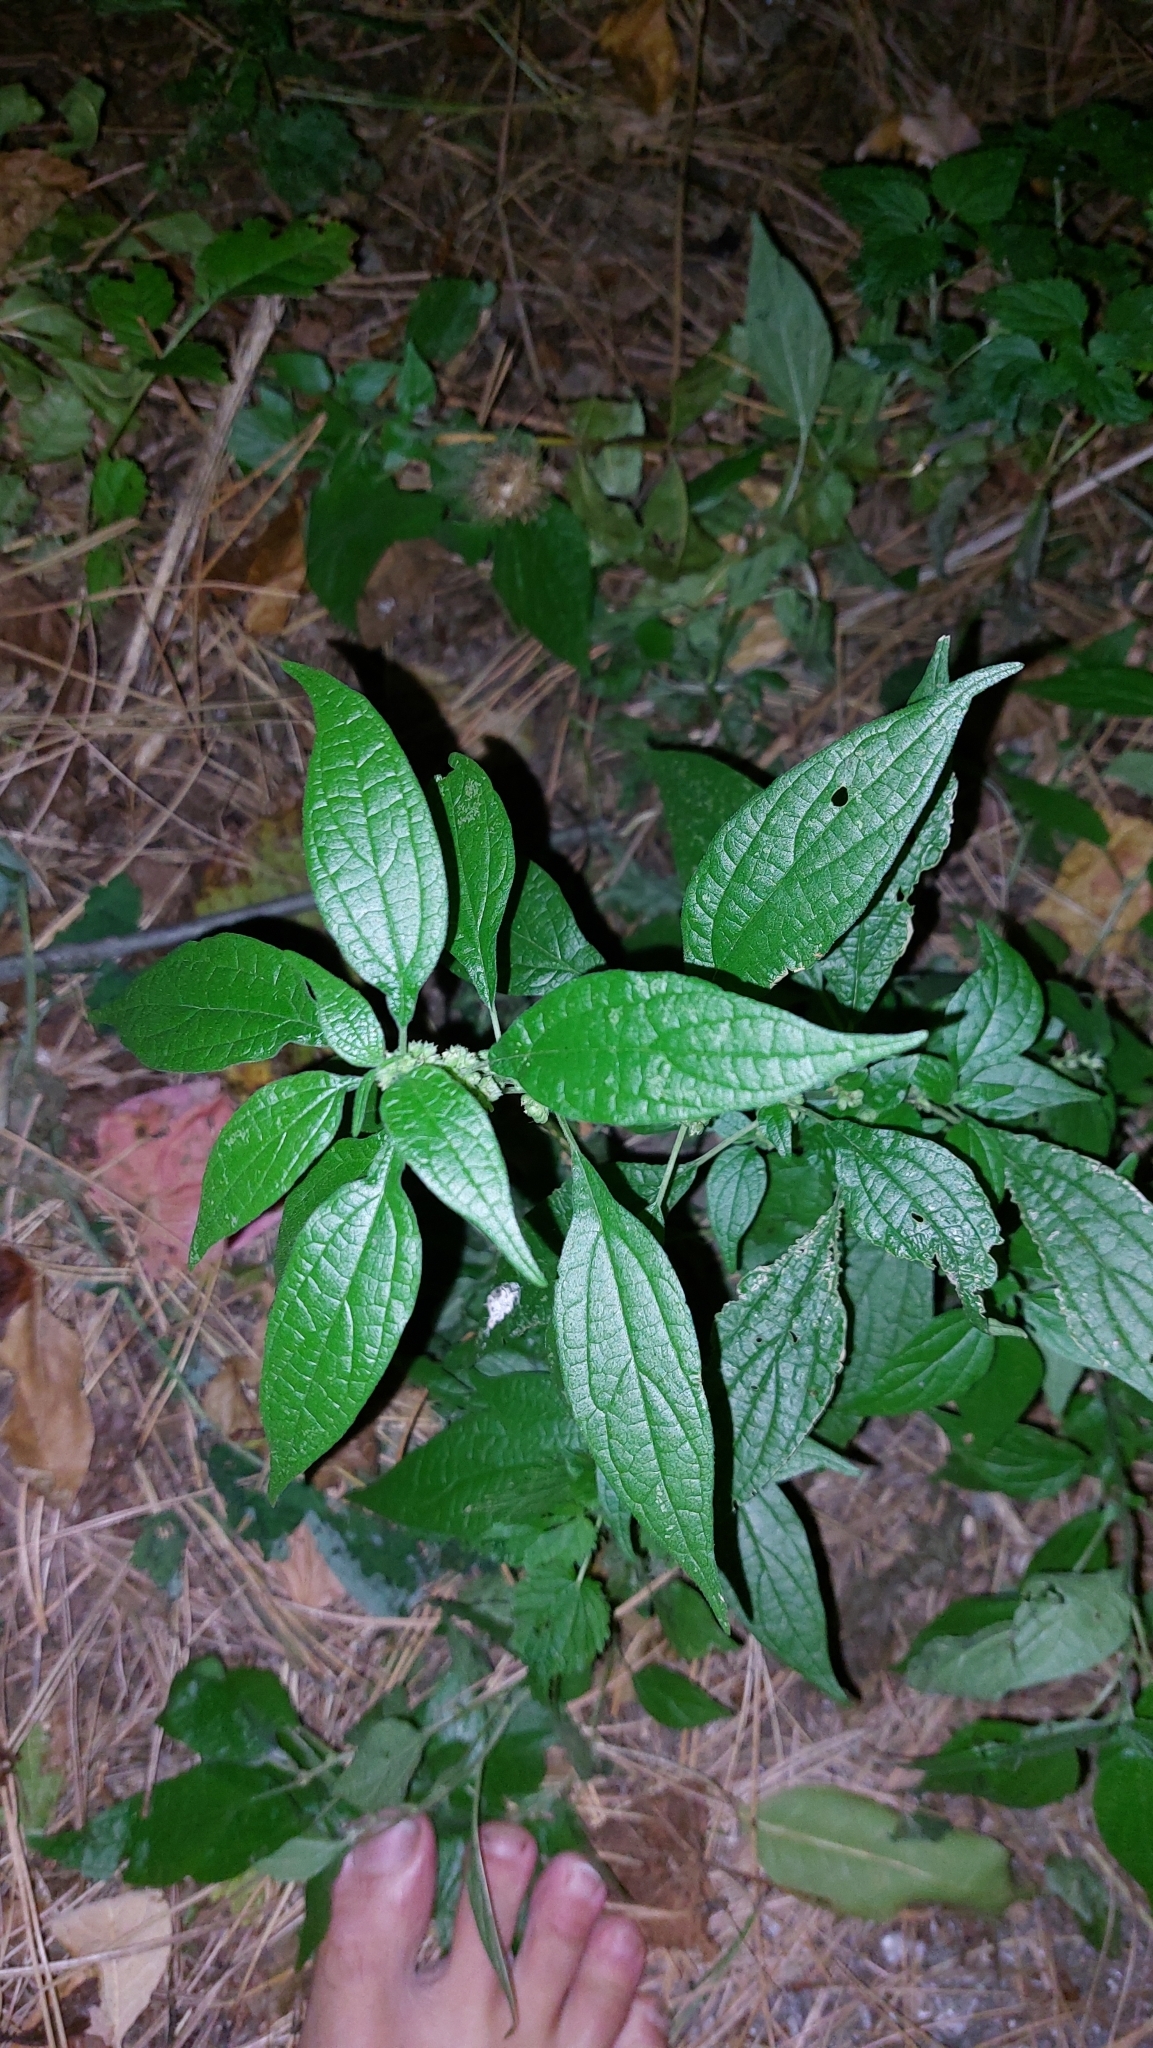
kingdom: Plantae
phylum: Tracheophyta
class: Magnoliopsida
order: Rosales
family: Urticaceae
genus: Parietaria
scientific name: Parietaria officinalis
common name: Eastern pellitory-of-the-wall
